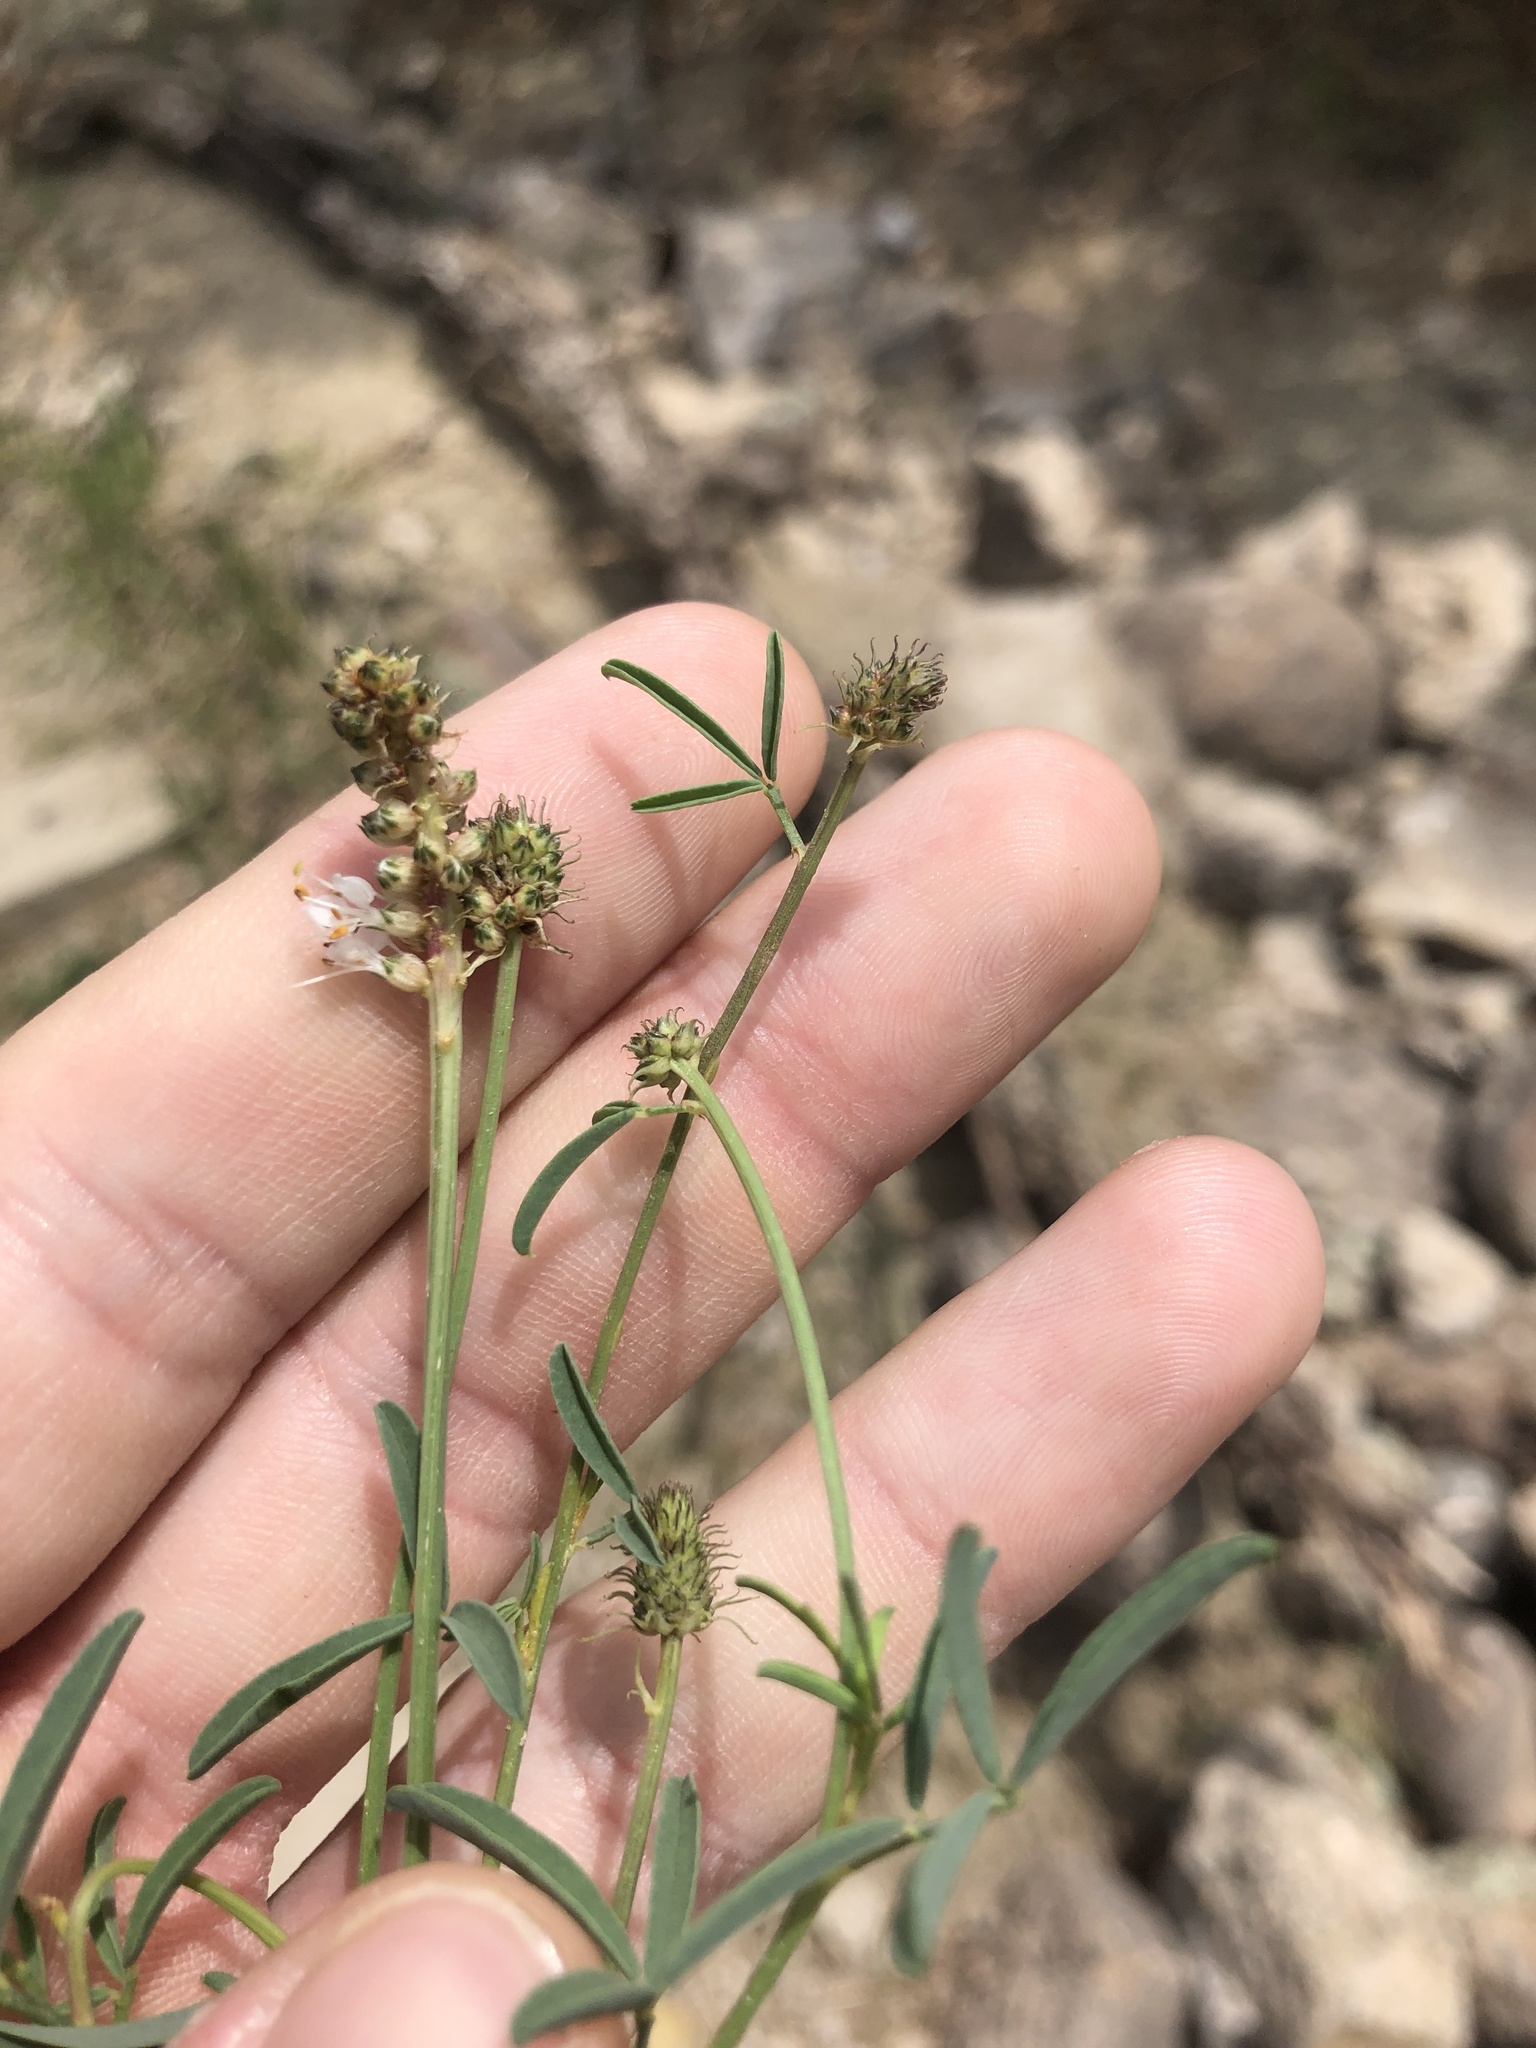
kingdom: Plantae
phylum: Tracheophyta
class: Magnoliopsida
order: Fabales
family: Fabaceae
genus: Dalea
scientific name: Dalea candida
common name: White prairie-clover
